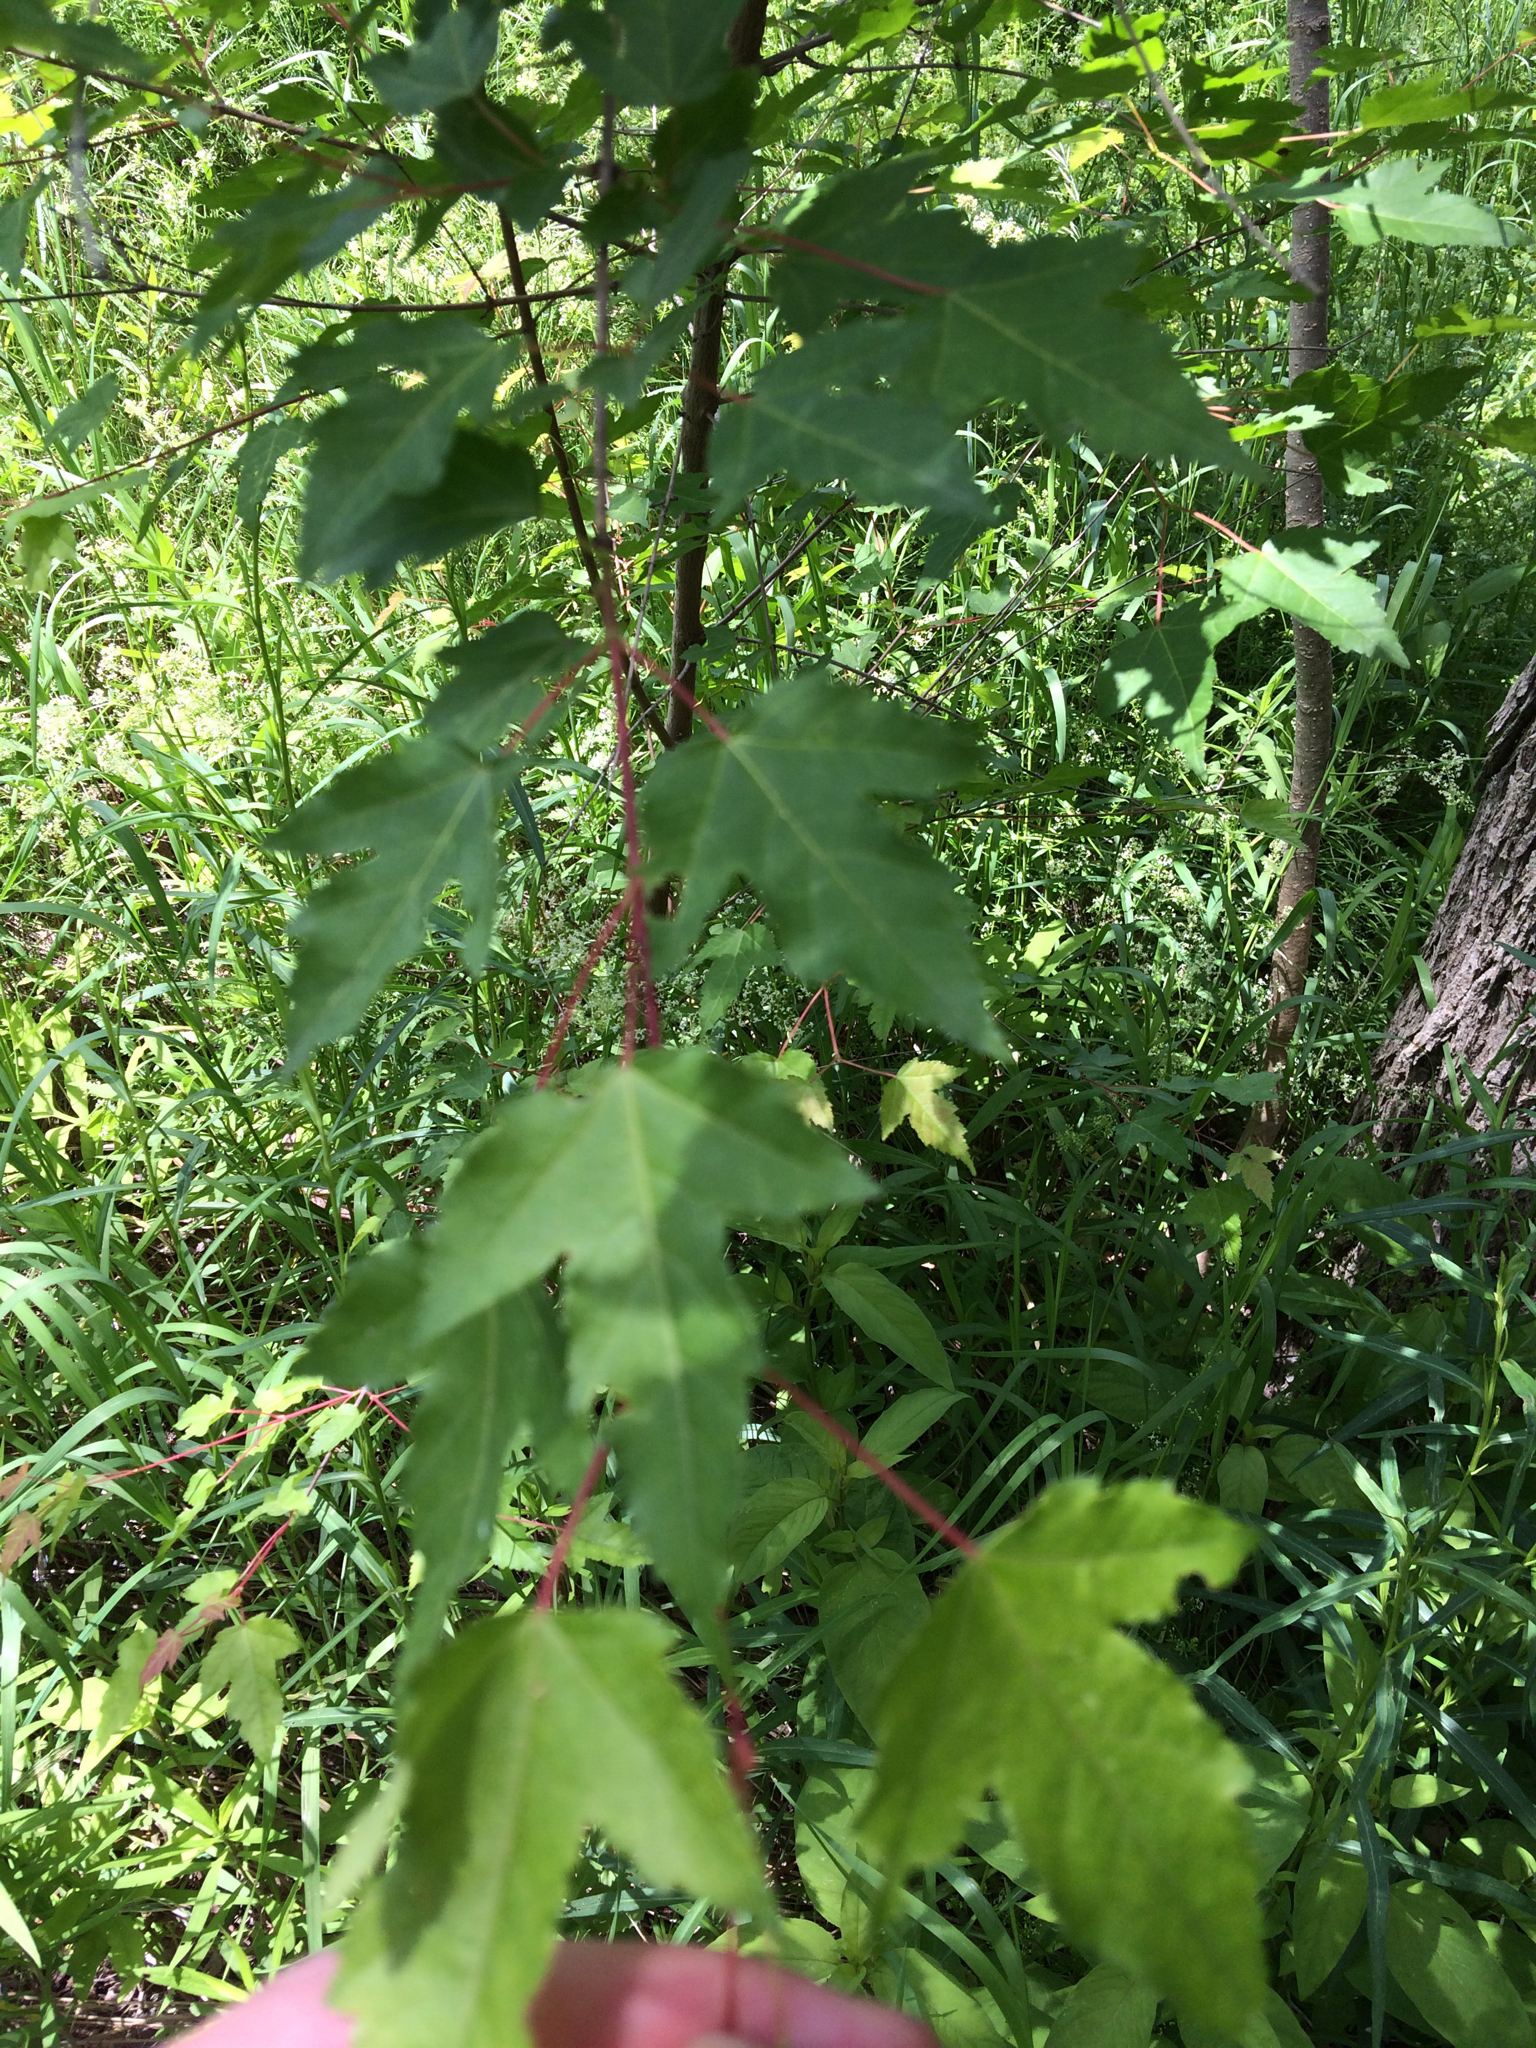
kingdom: Plantae
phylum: Tracheophyta
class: Magnoliopsida
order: Sapindales
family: Sapindaceae
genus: Acer
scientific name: Acer tataricum
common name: Tartar maple
